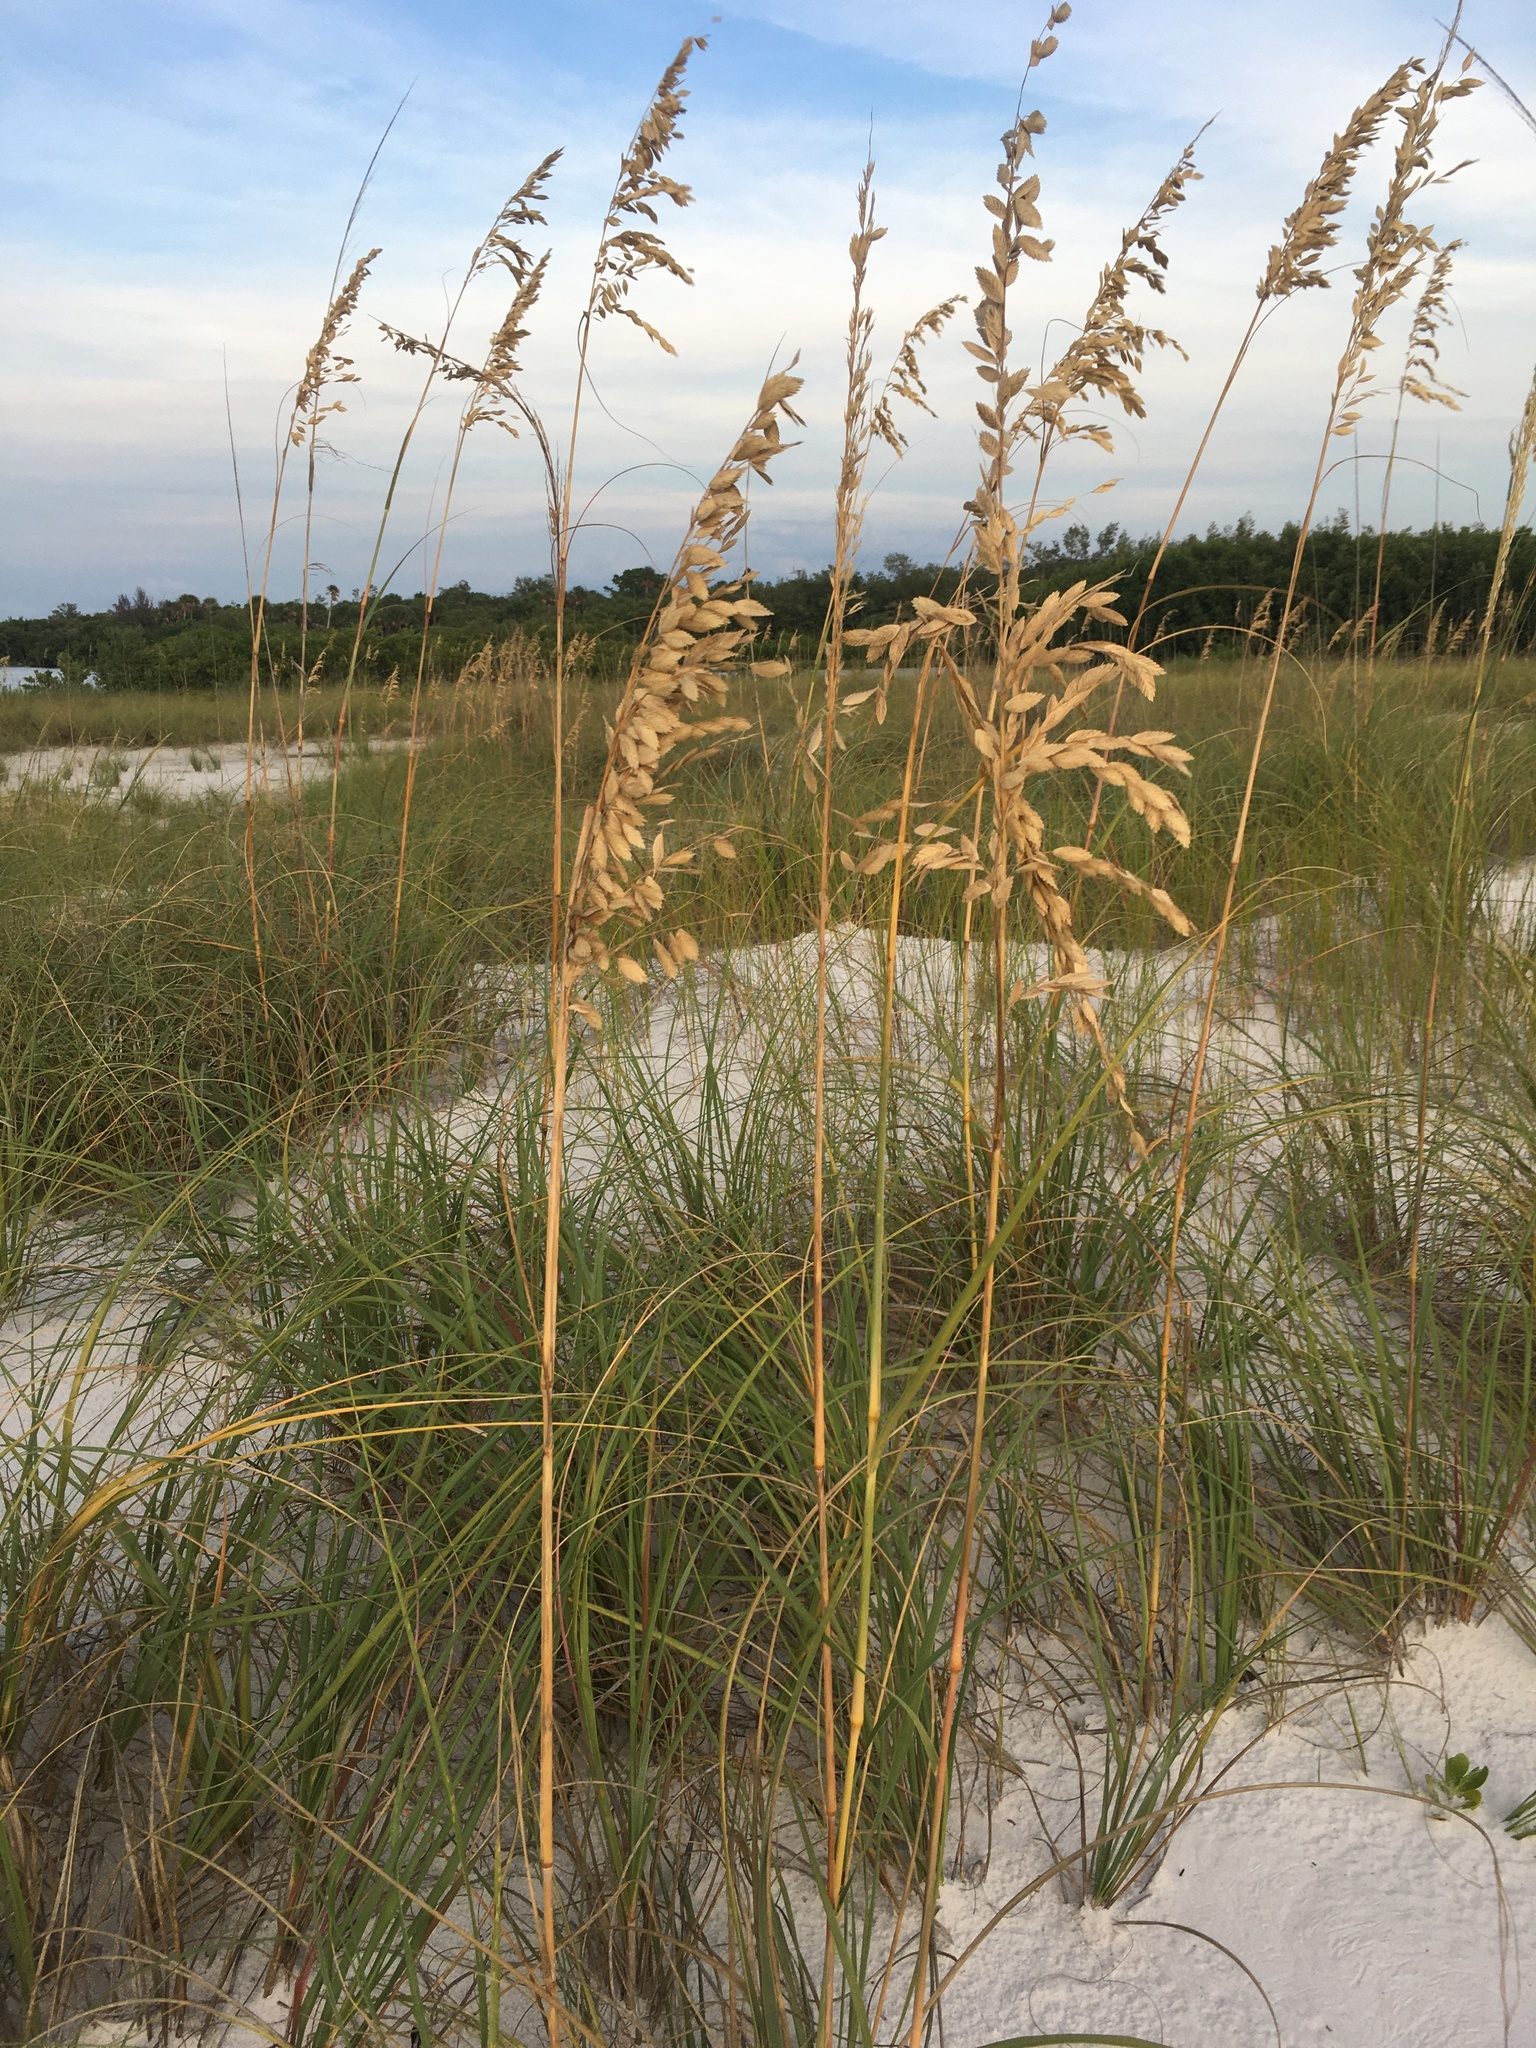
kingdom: Plantae
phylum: Tracheophyta
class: Liliopsida
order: Poales
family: Poaceae
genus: Uniola
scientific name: Uniola paniculata
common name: Seaside-oats
